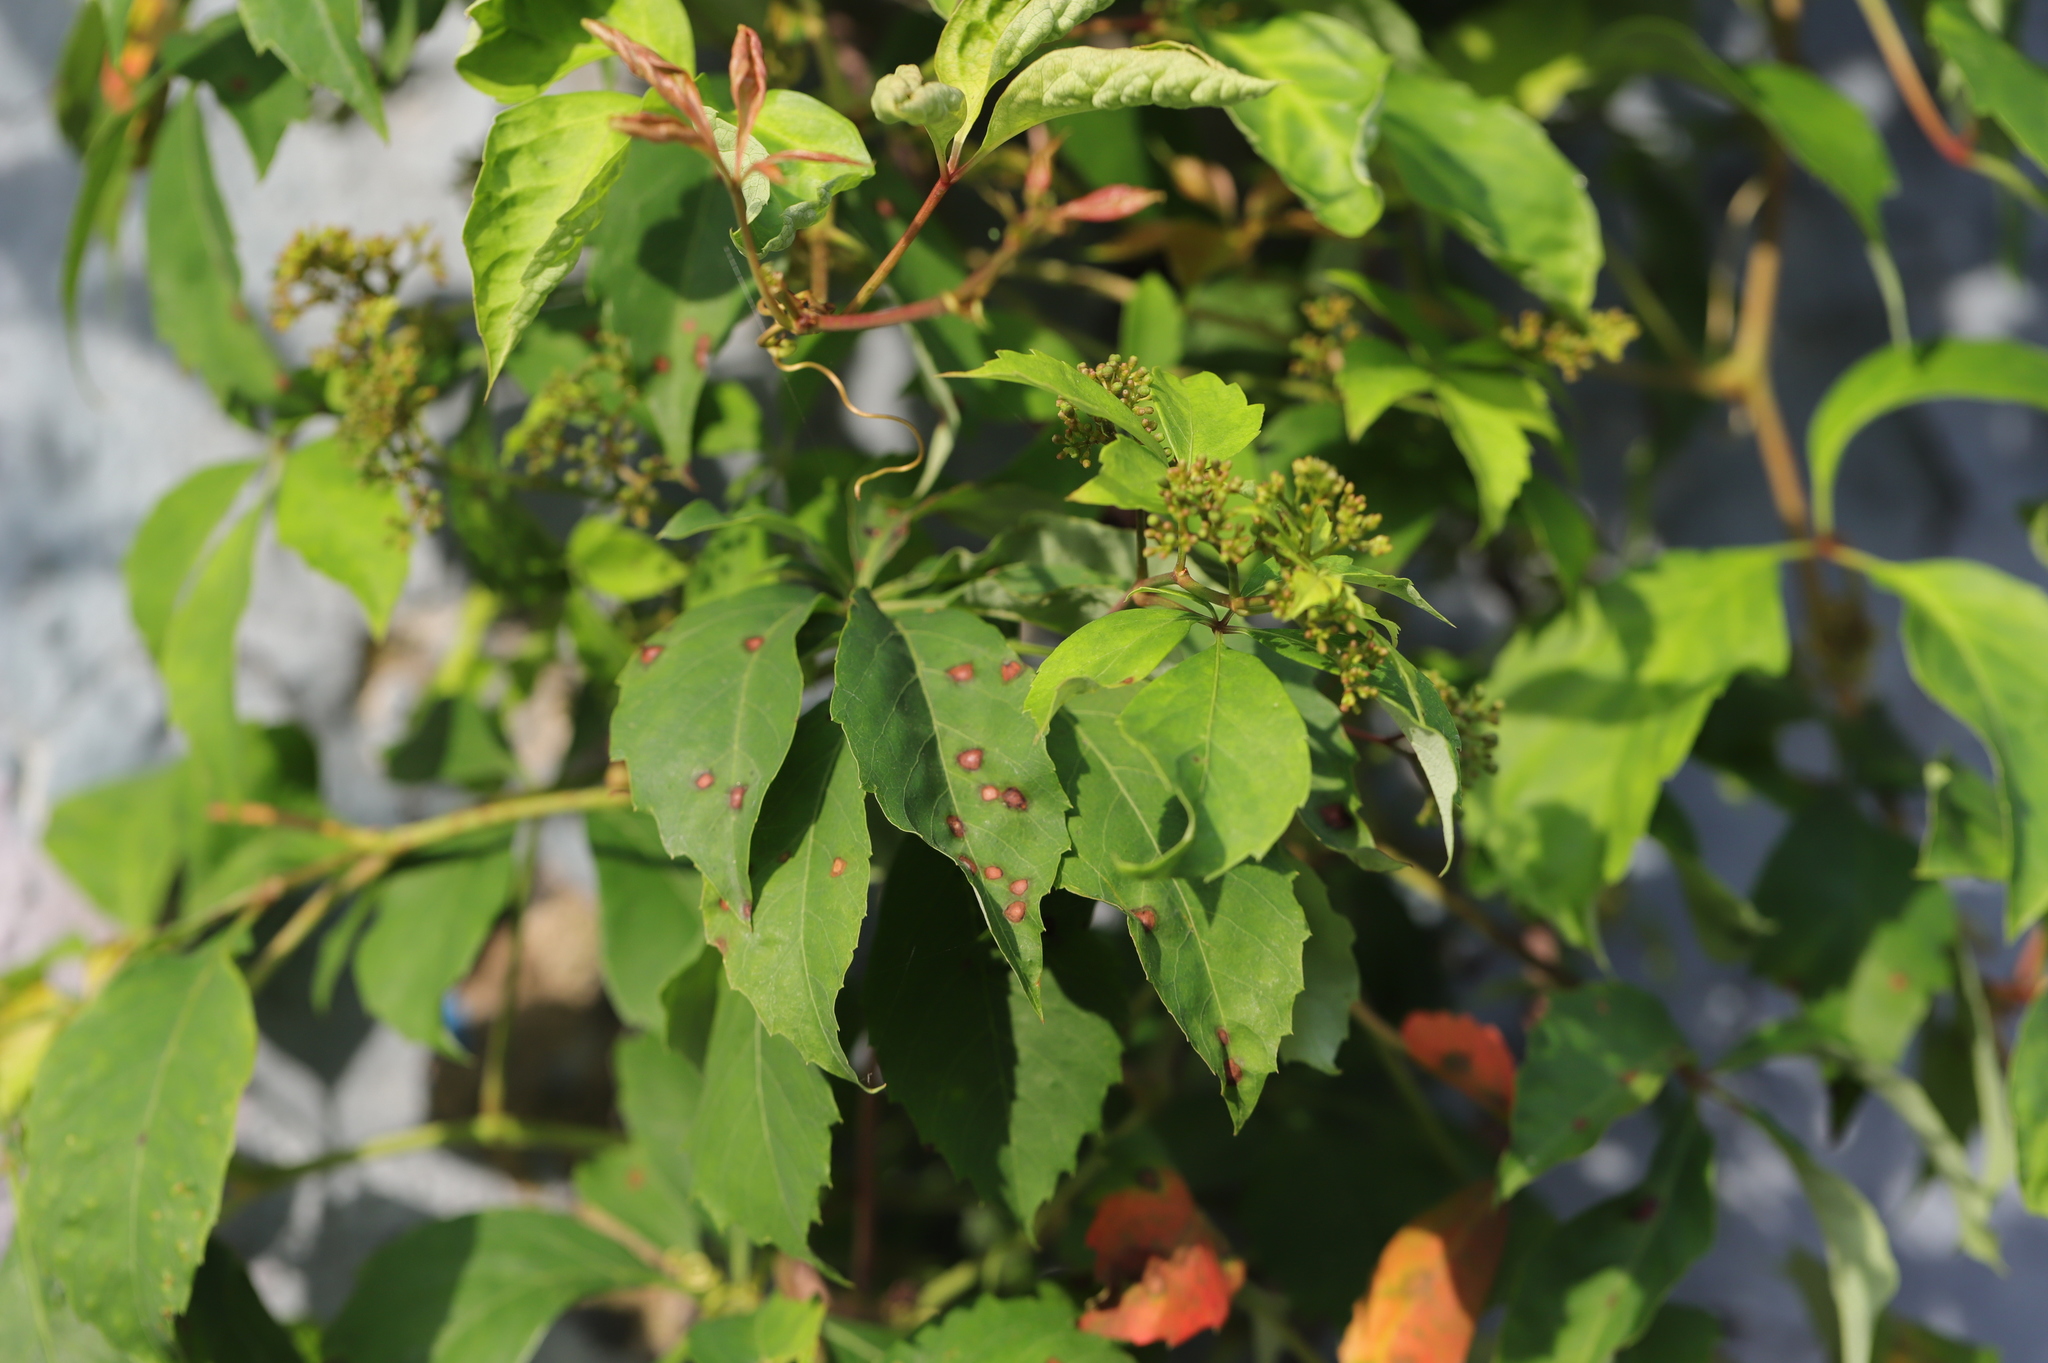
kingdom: Plantae
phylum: Tracheophyta
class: Magnoliopsida
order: Vitales
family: Vitaceae
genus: Parthenocissus
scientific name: Parthenocissus quinquefolia
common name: Virginia-creeper
